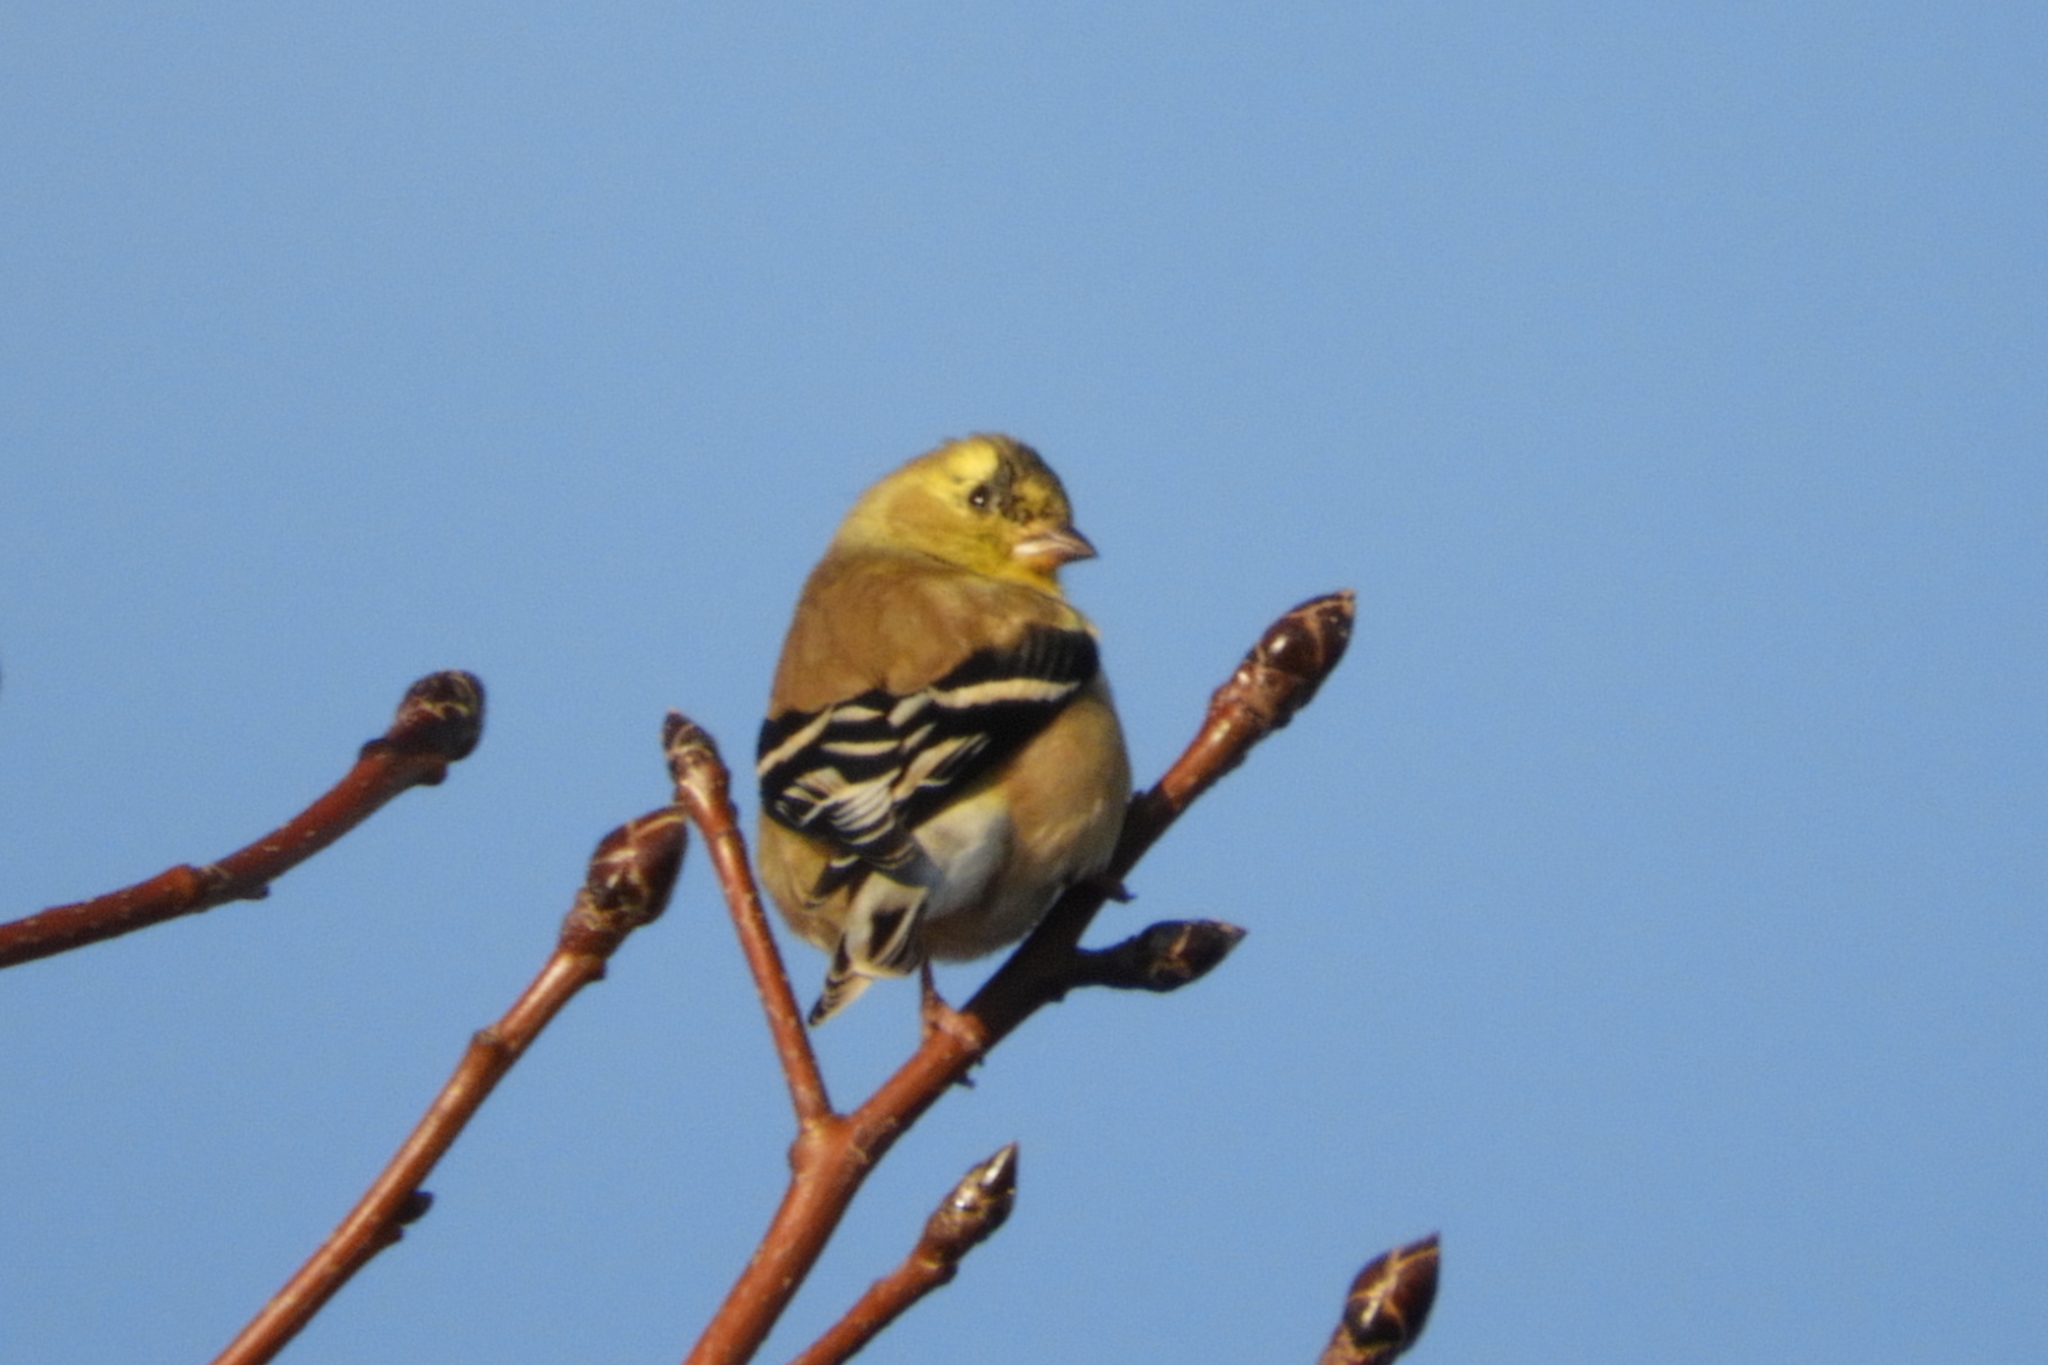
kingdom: Animalia
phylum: Chordata
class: Aves
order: Passeriformes
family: Fringillidae
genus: Spinus
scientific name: Spinus tristis
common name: American goldfinch
